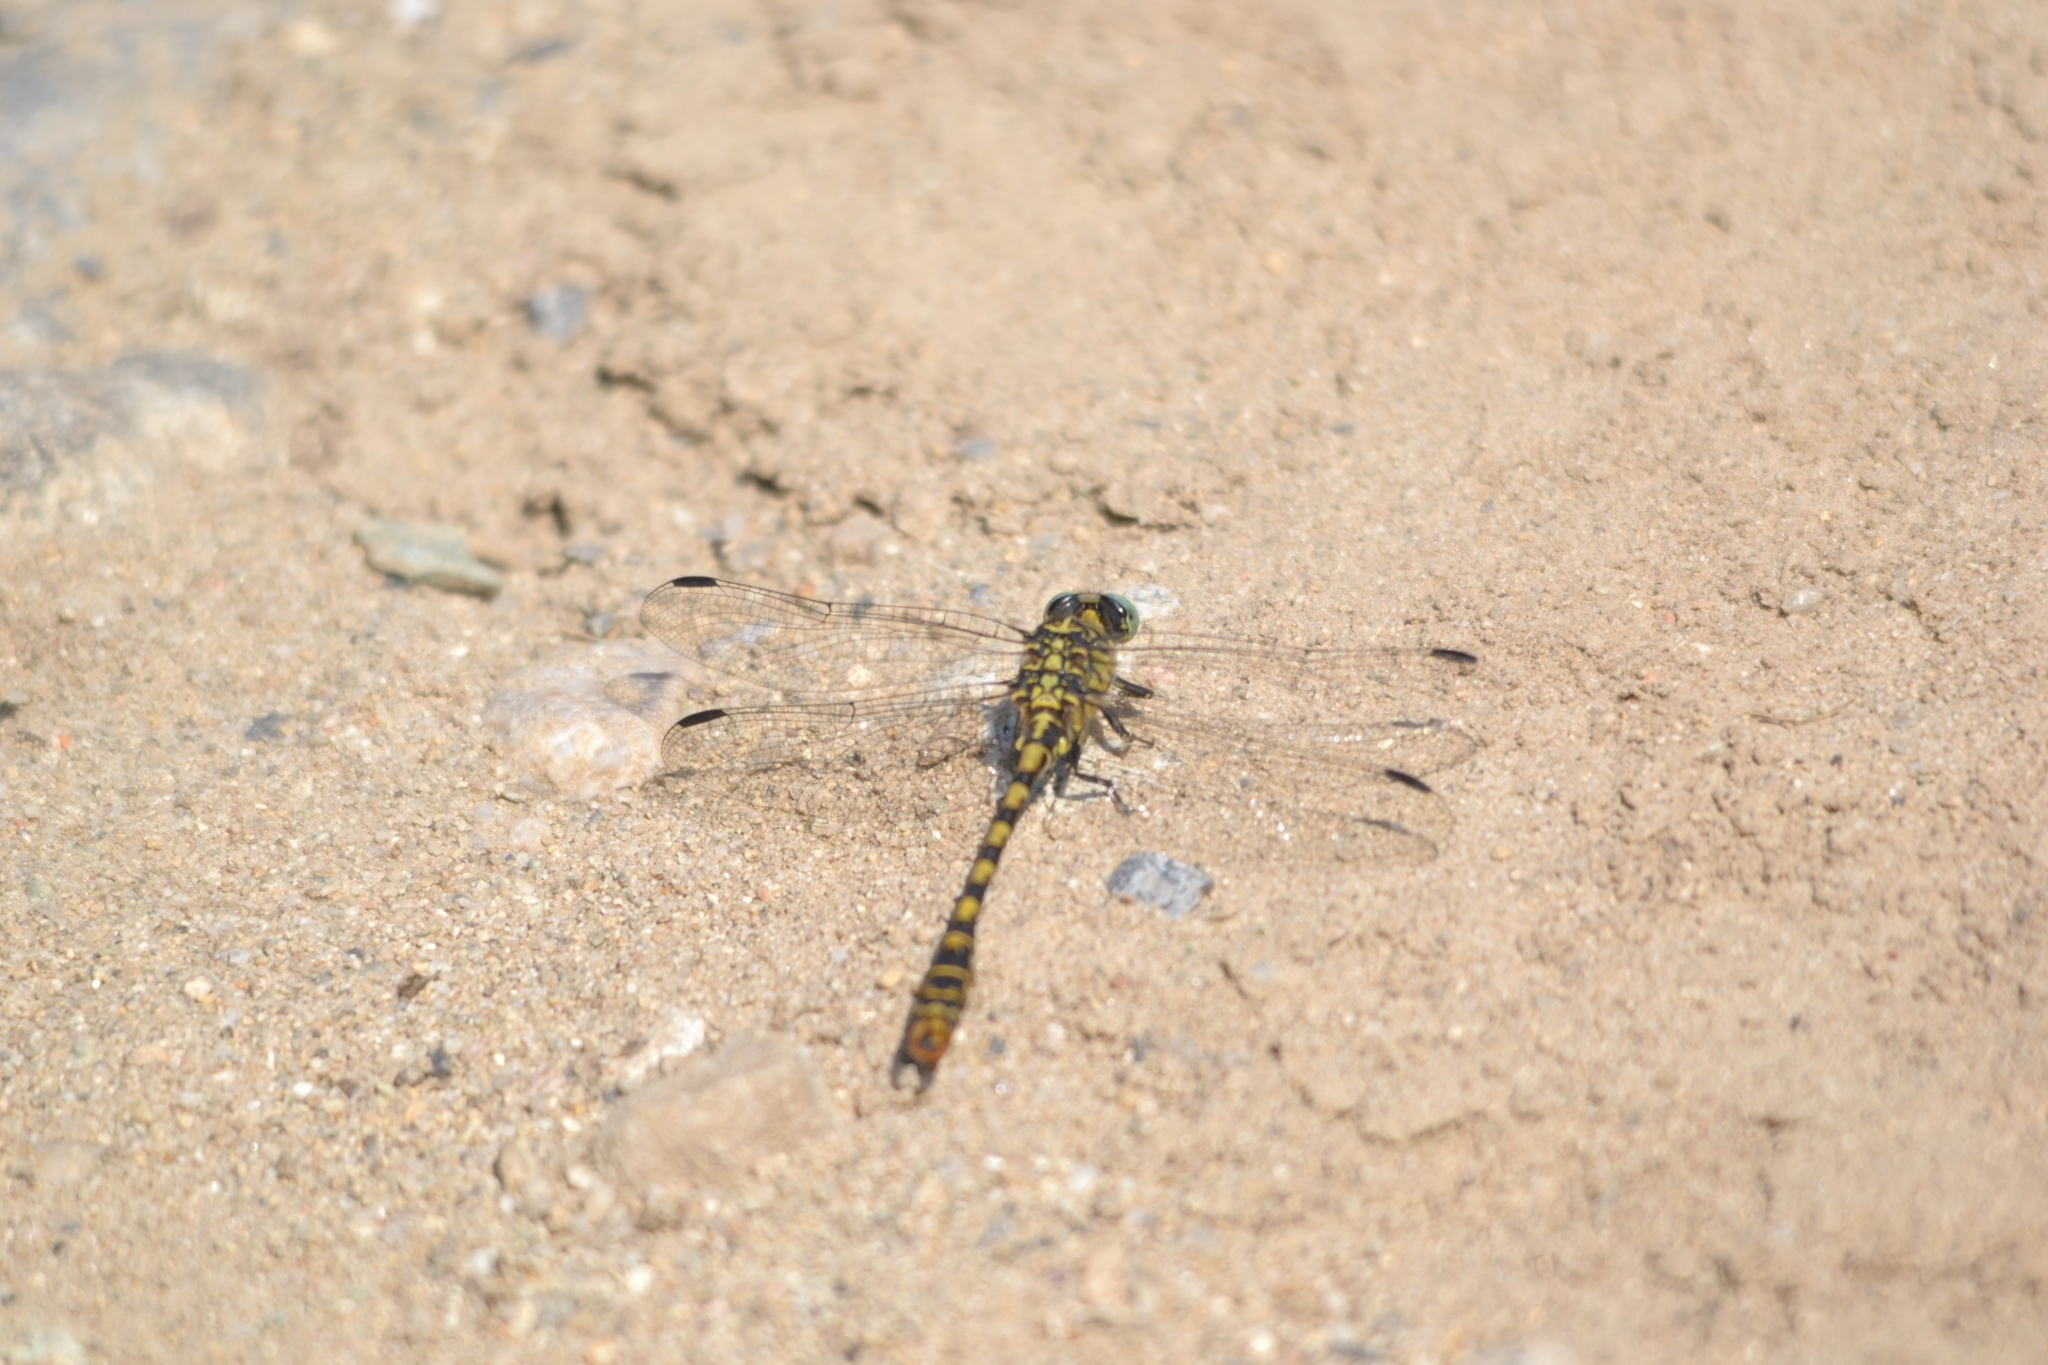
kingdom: Animalia
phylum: Arthropoda
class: Insecta
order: Odonata
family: Gomphidae
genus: Onychogomphus
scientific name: Onychogomphus forcipatus
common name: Small pincertail
